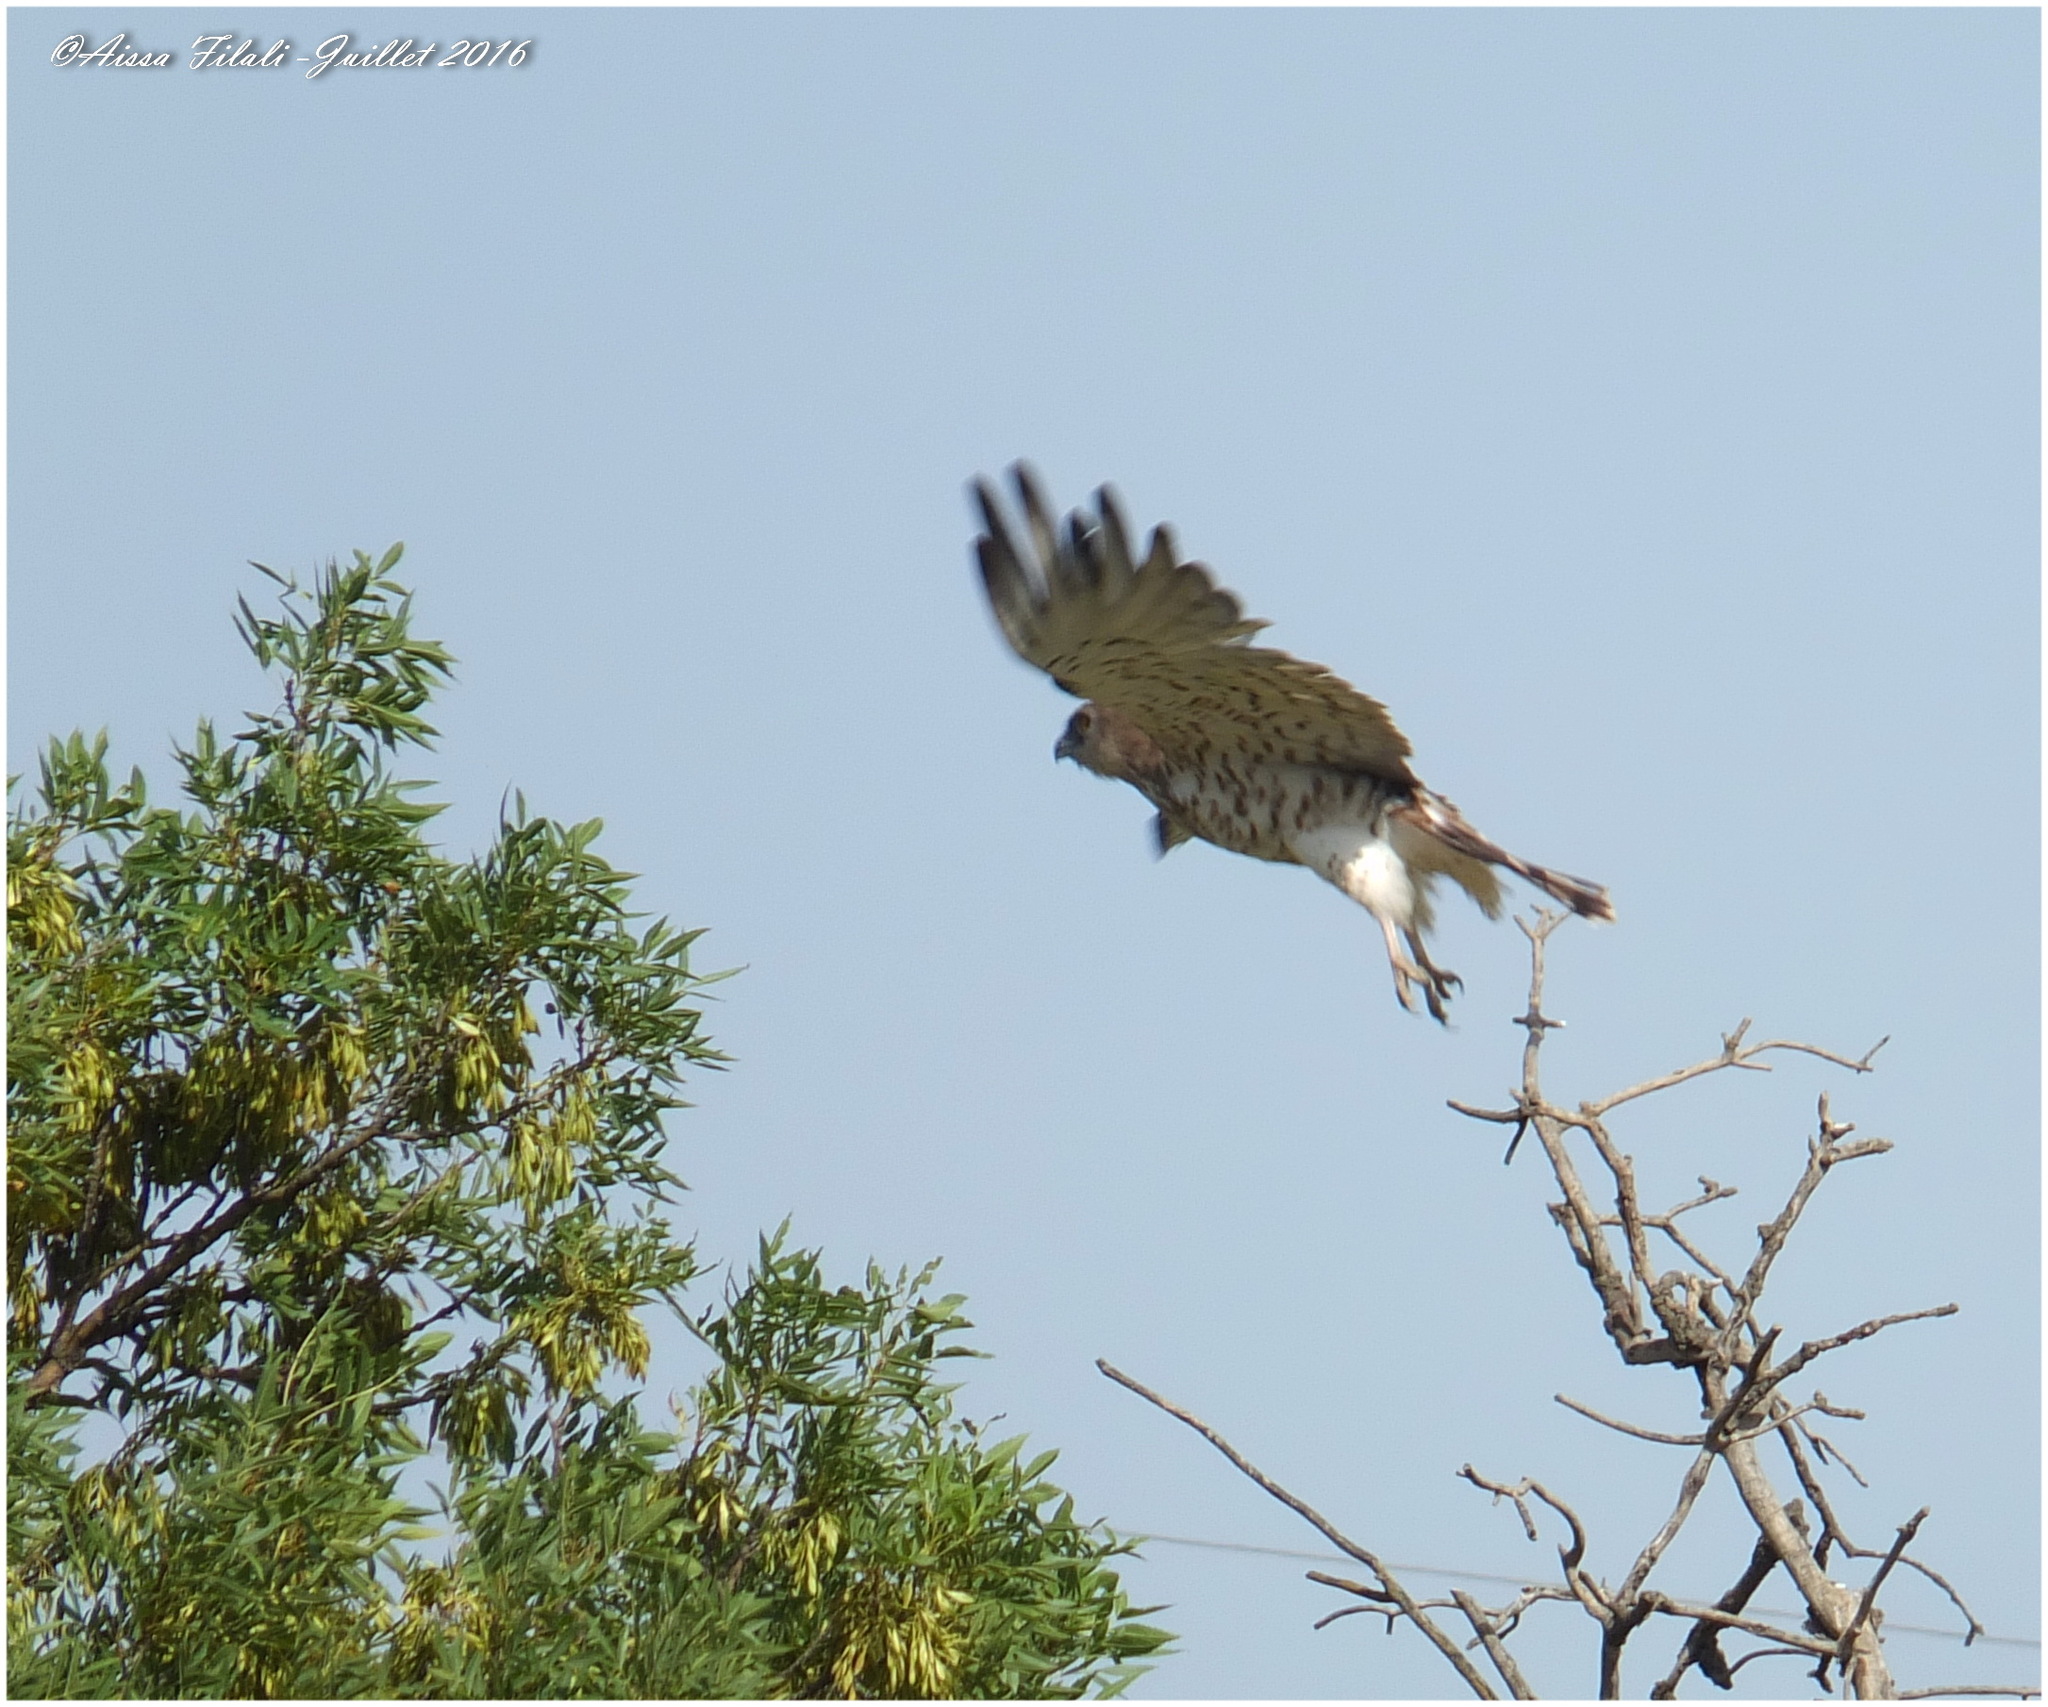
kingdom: Animalia
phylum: Chordata
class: Aves
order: Accipitriformes
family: Accipitridae
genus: Circaetus
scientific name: Circaetus gallicus
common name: Short-toed snake eagle
